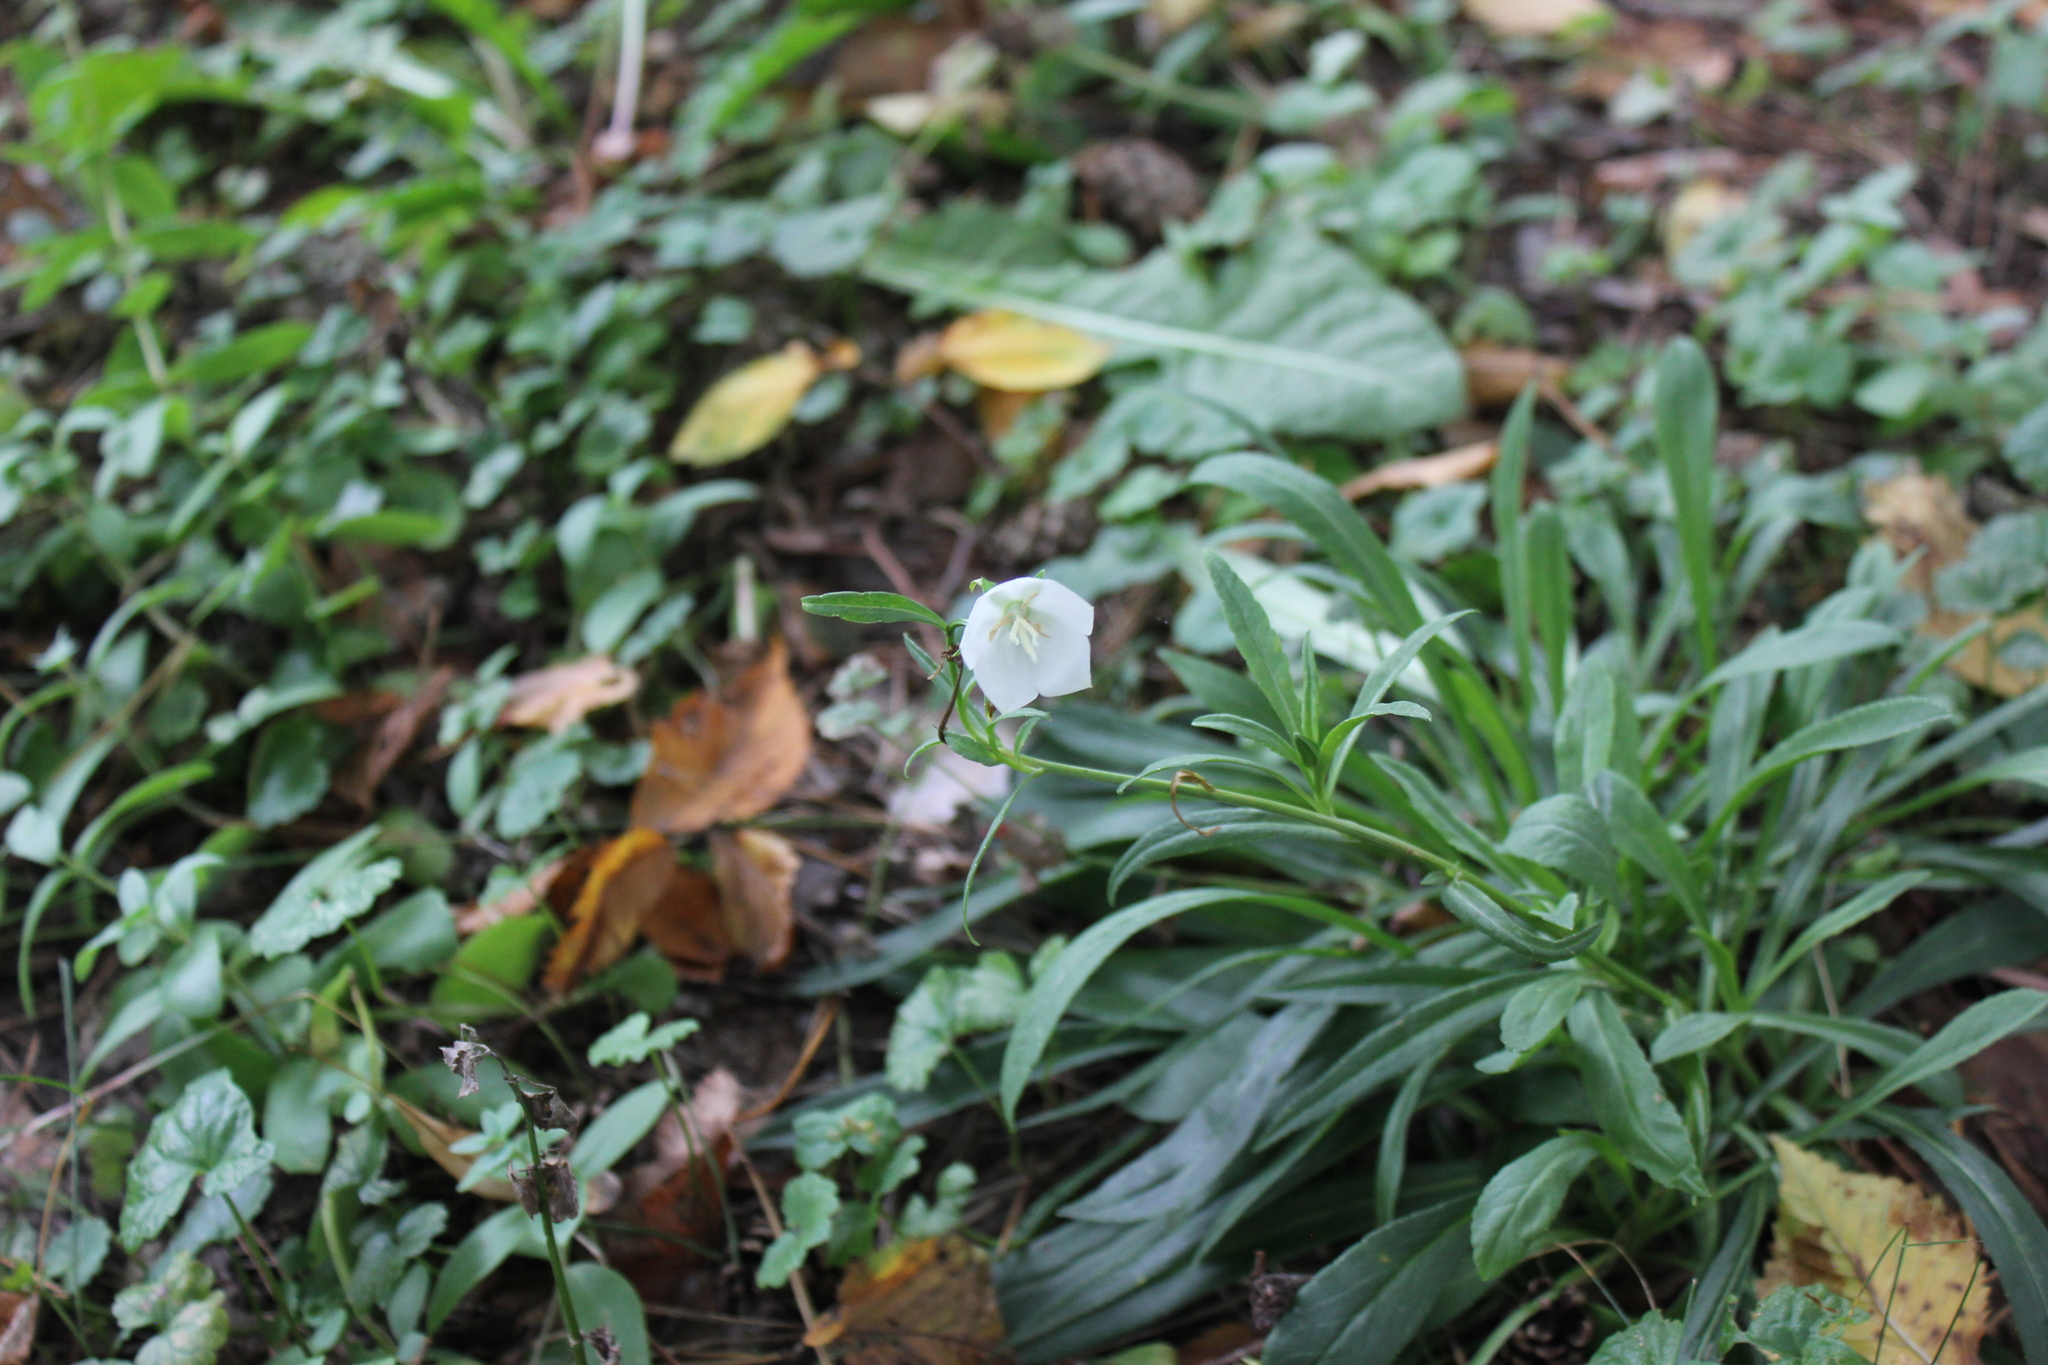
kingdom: Plantae
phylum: Tracheophyta
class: Magnoliopsida
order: Asterales
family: Campanulaceae
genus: Campanula
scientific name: Campanula persicifolia
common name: Peach-leaved bellflower
